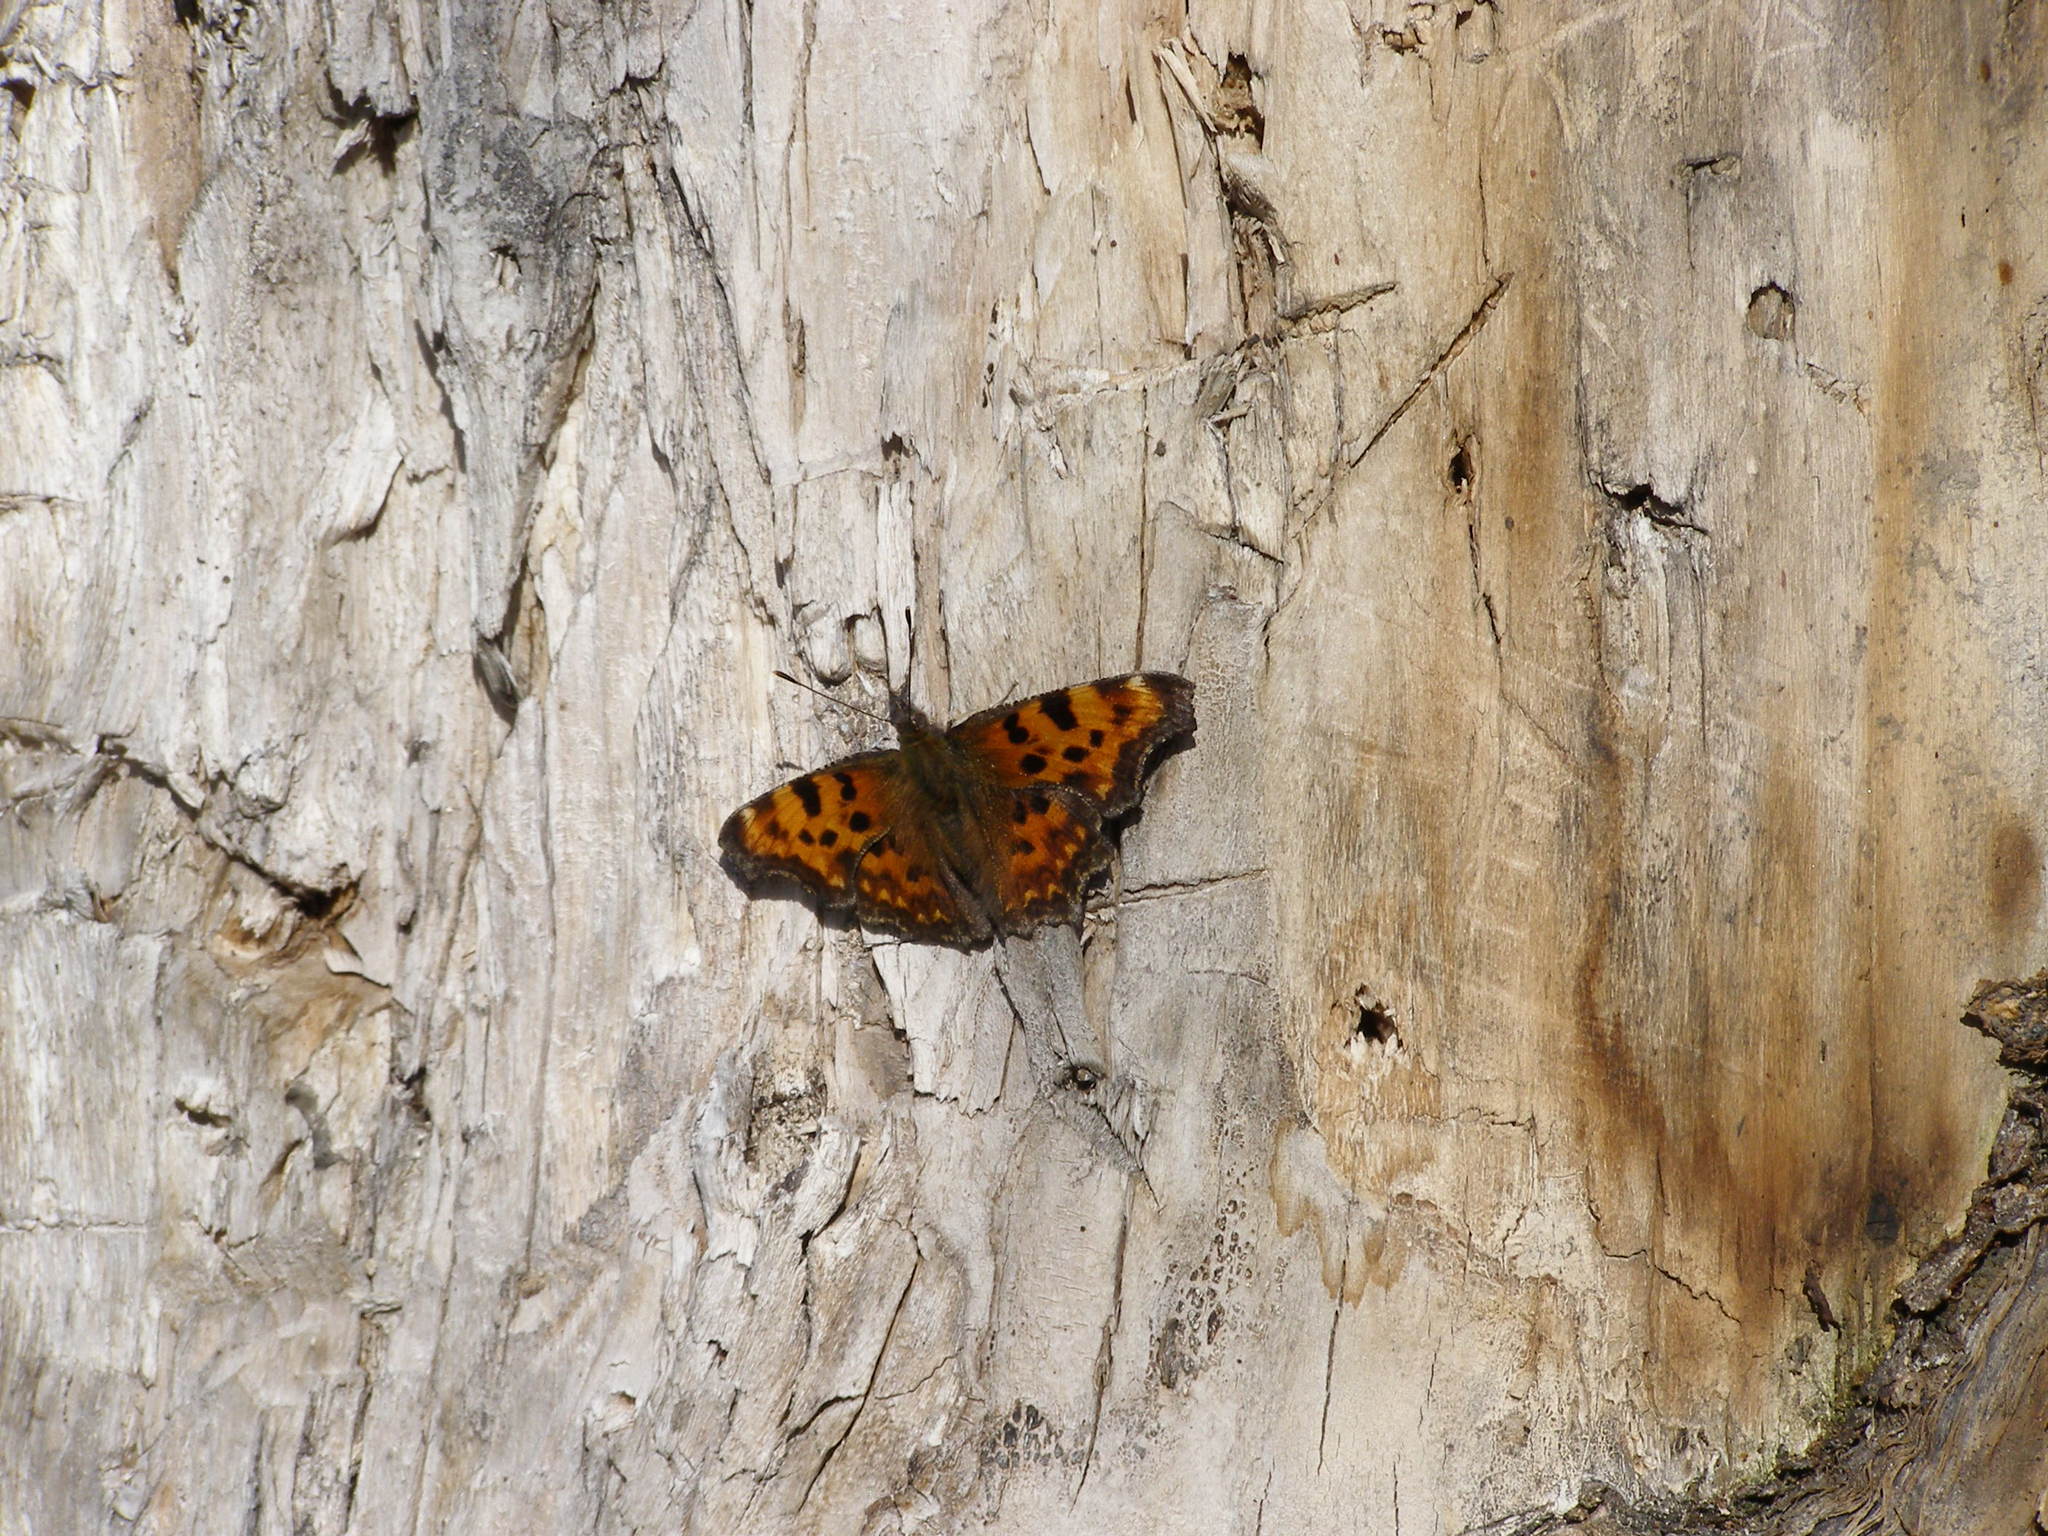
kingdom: Animalia
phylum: Arthropoda
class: Insecta
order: Lepidoptera
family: Nymphalidae
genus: Polygonia
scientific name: Polygonia c-album
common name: Comma
